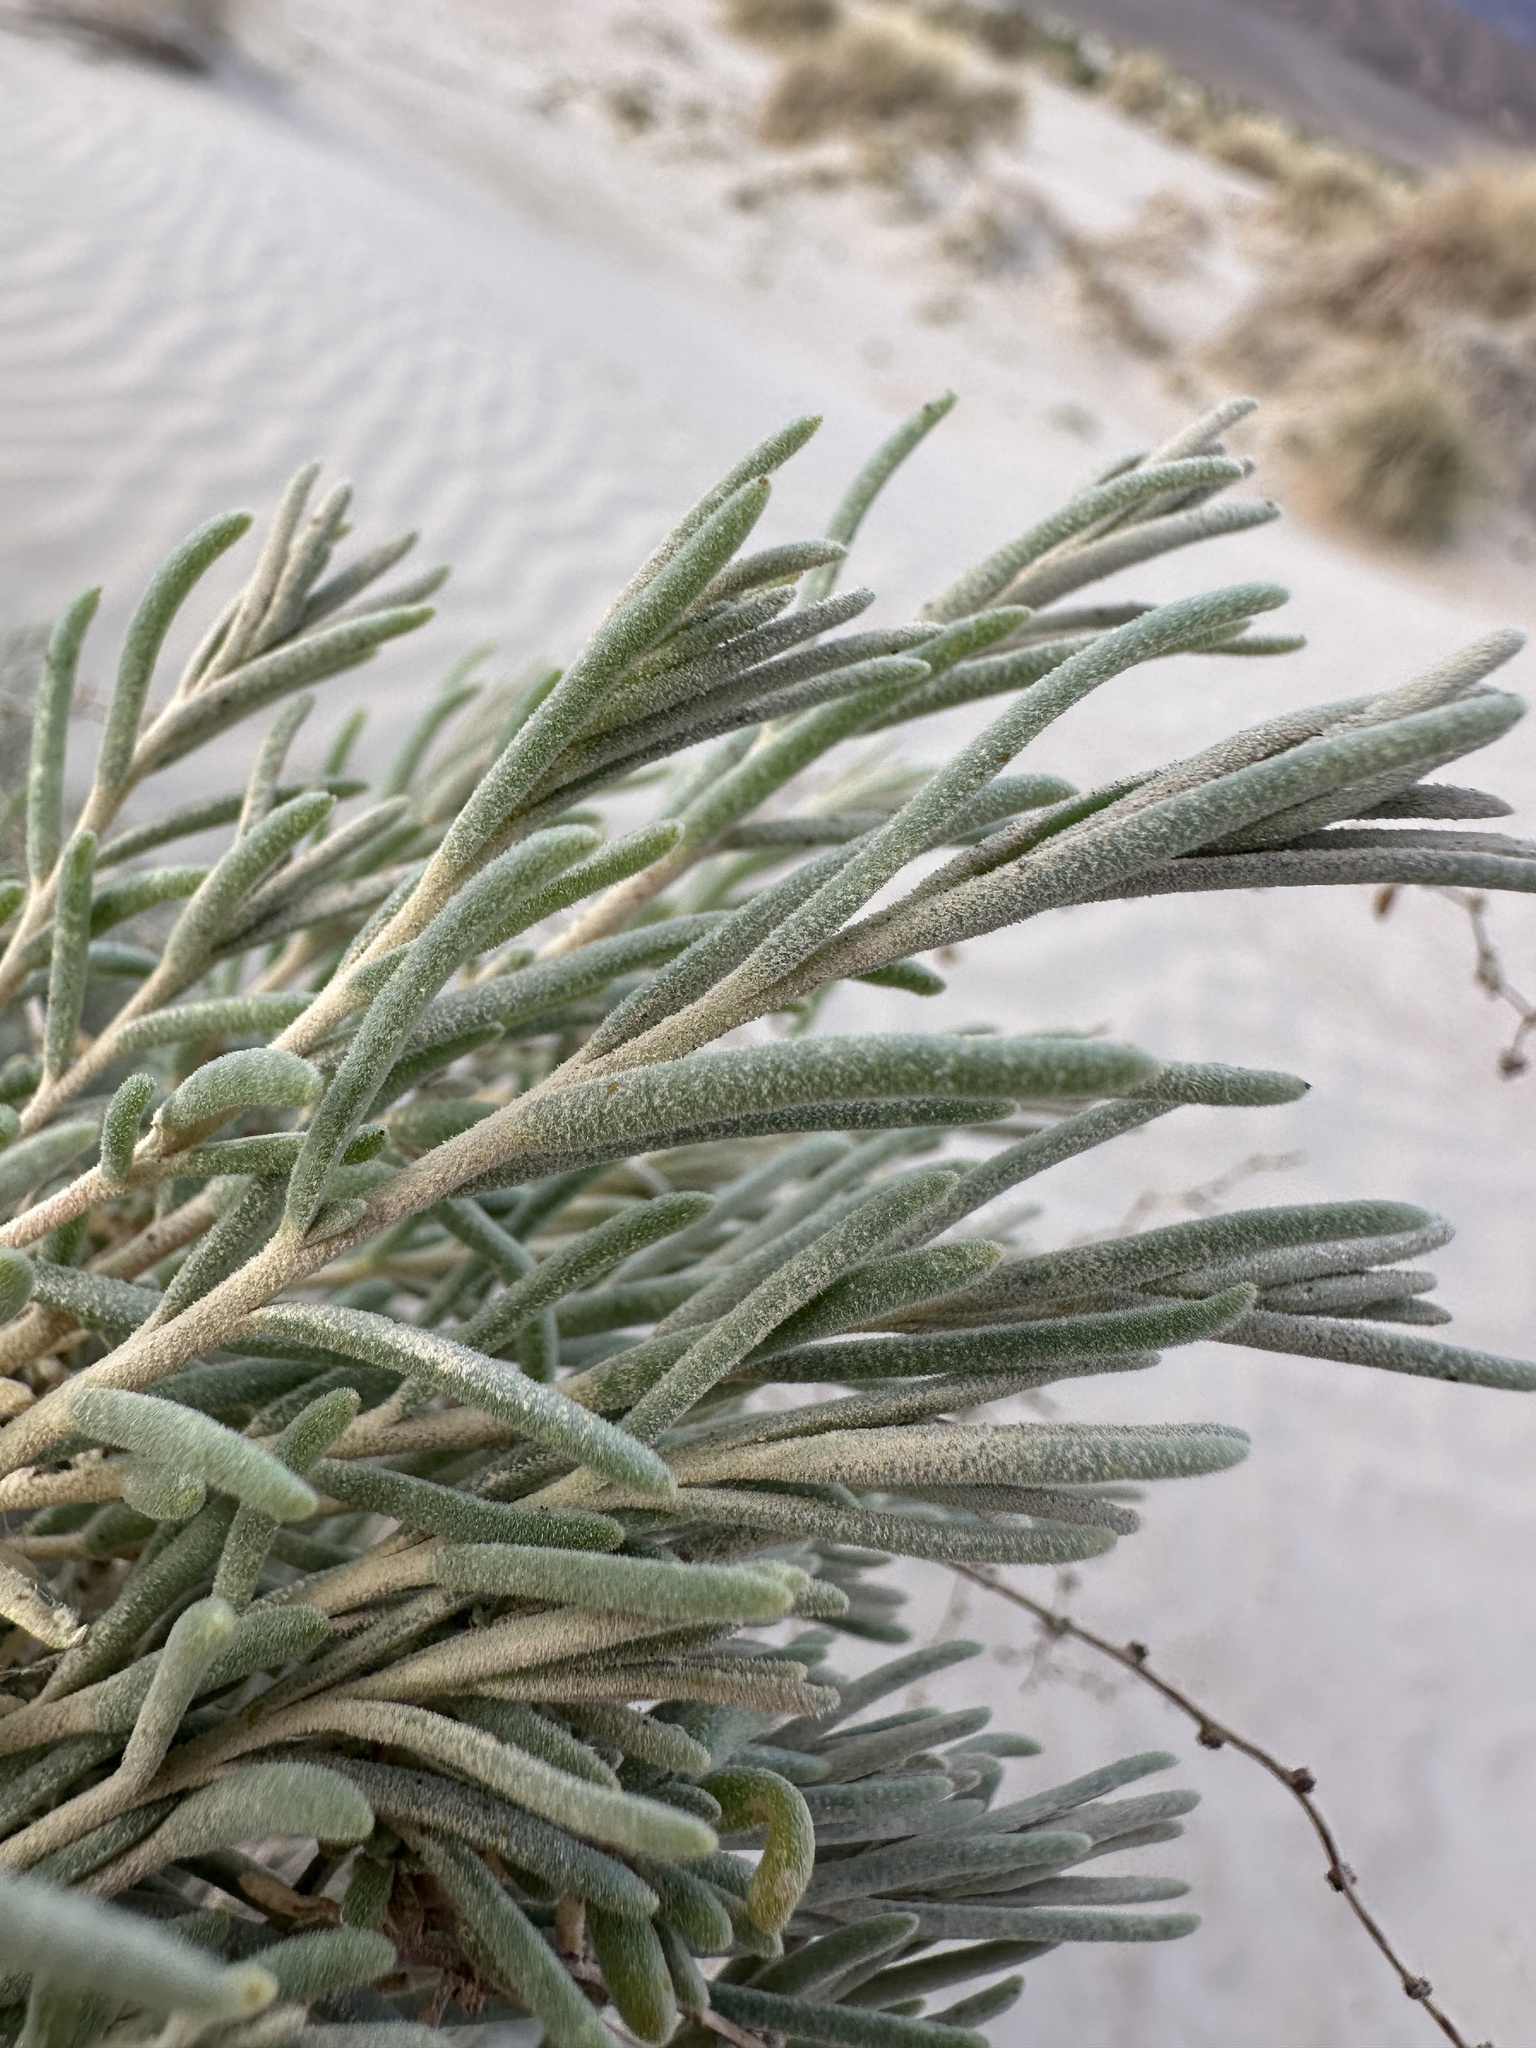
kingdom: Plantae
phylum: Tracheophyta
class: Magnoliopsida
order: Caryophyllales
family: Amaranthaceae
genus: Suaeda
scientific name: Suaeda nigra
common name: Bush seepweed
